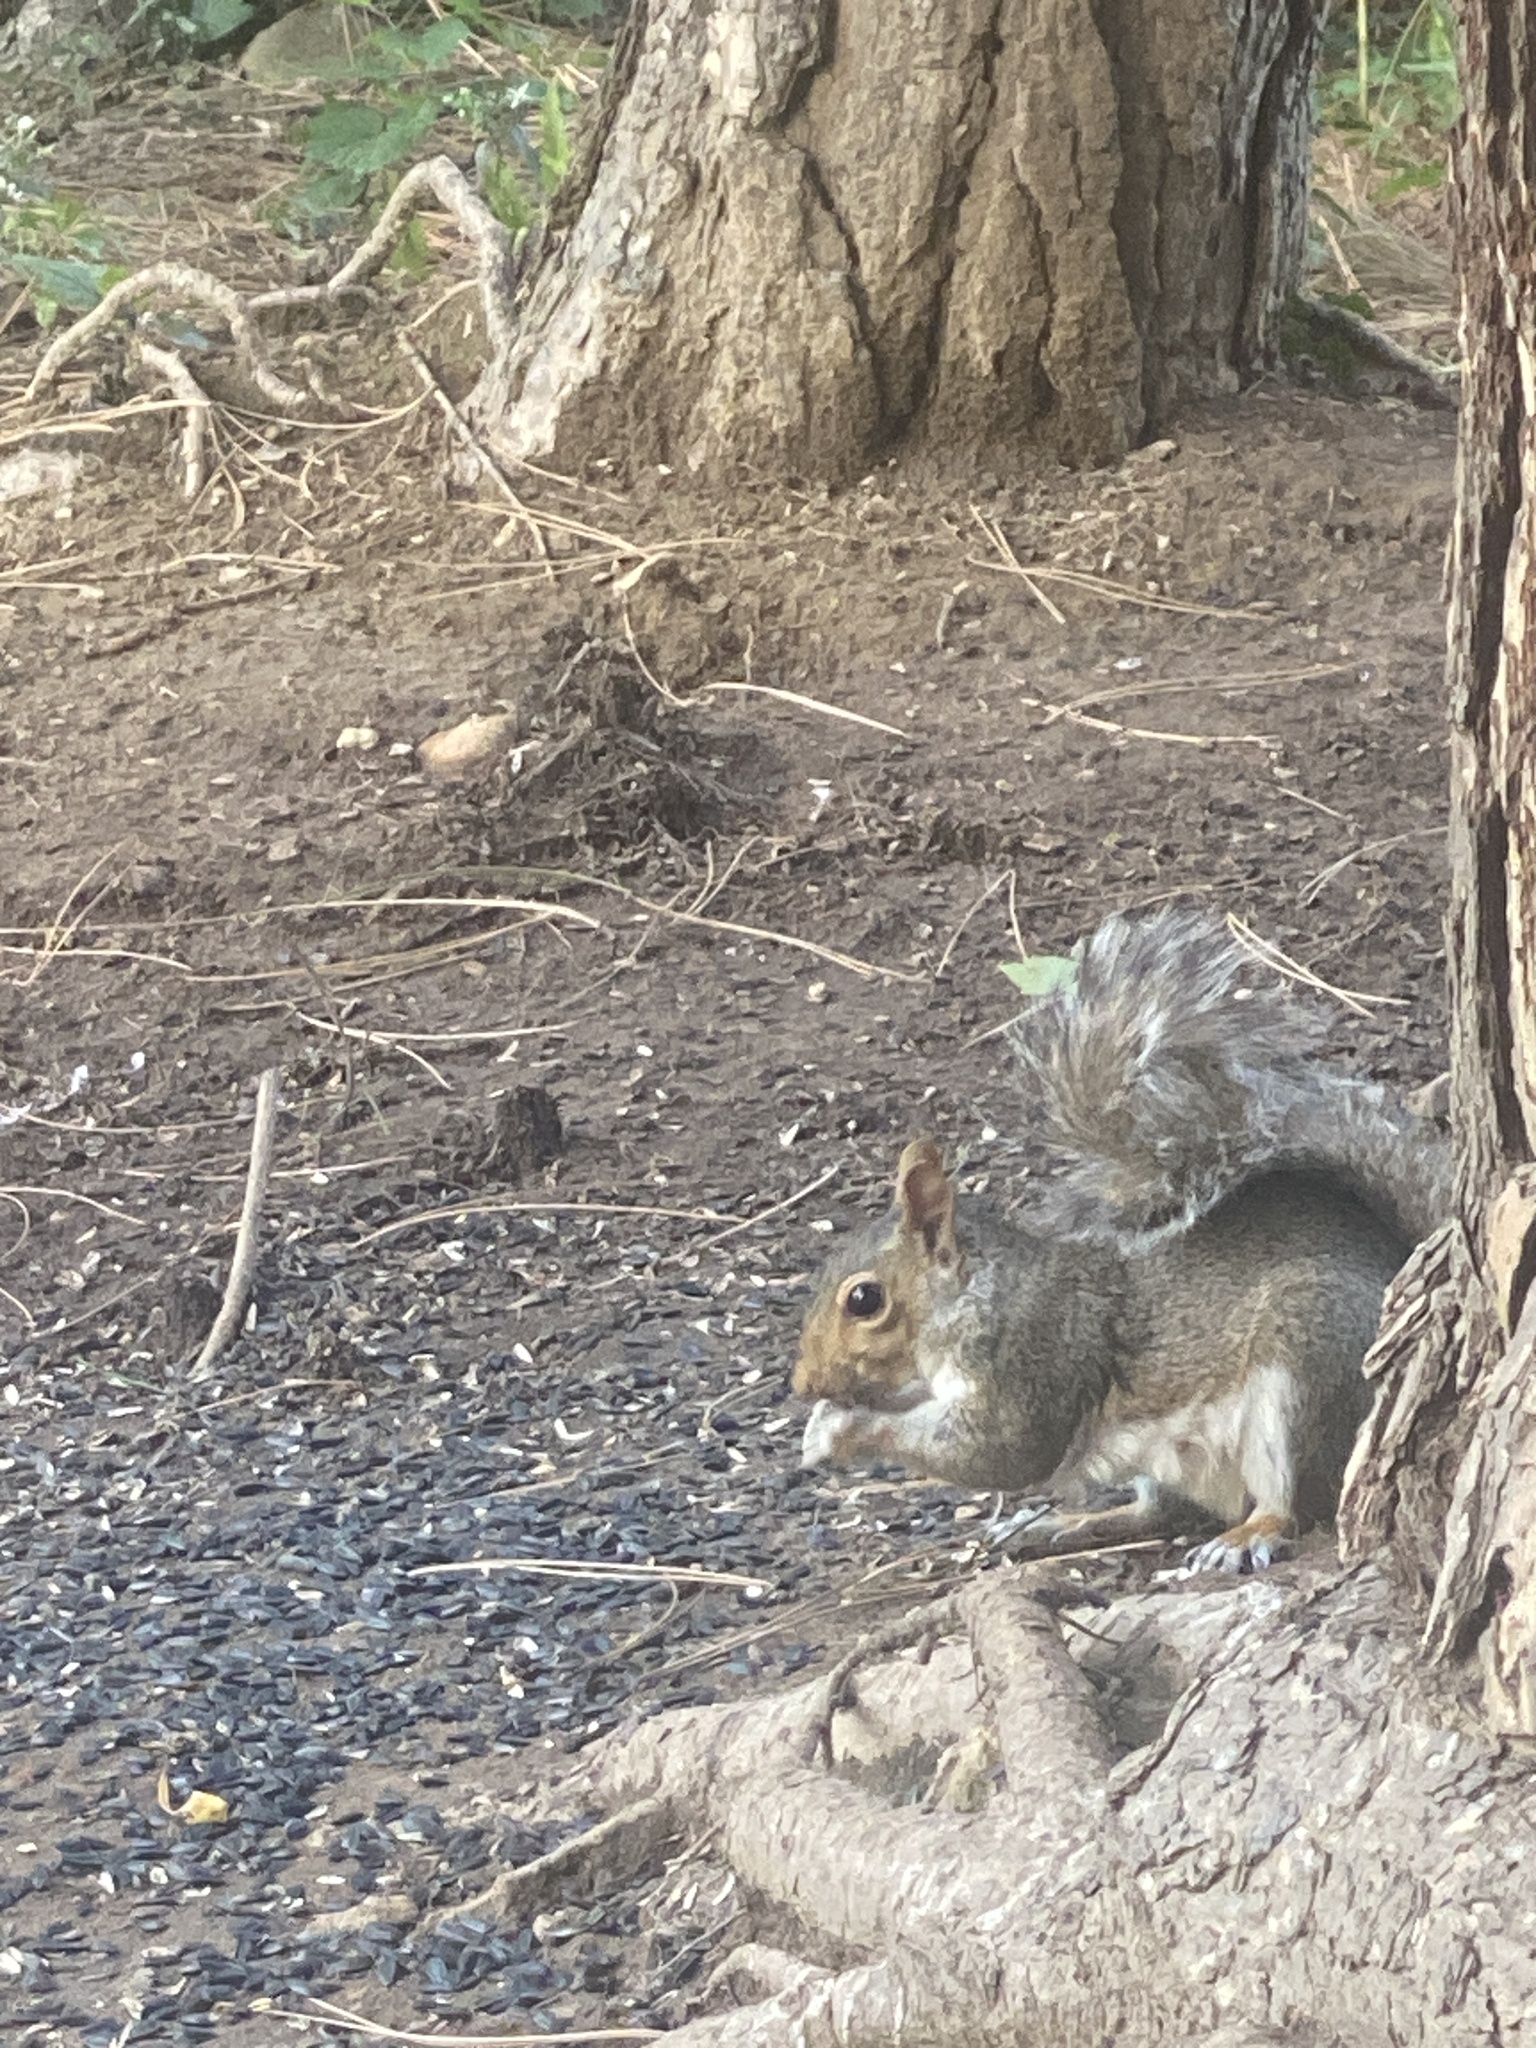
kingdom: Animalia
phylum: Chordata
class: Mammalia
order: Rodentia
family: Sciuridae
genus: Sciurus
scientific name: Sciurus carolinensis
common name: Eastern gray squirrel
